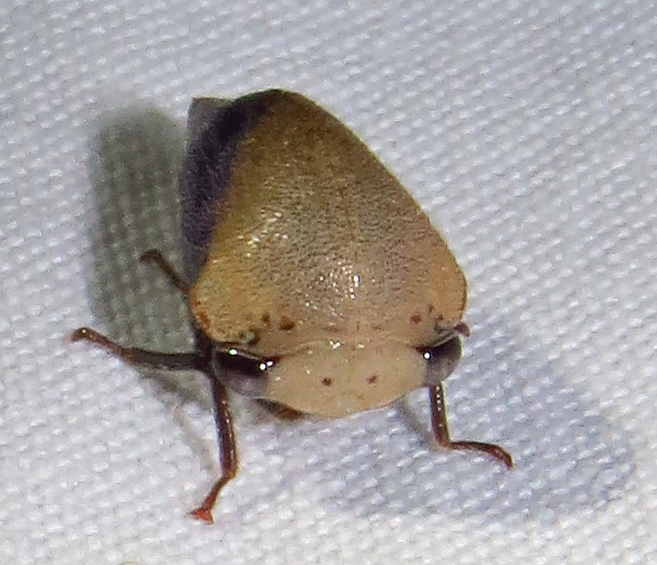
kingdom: Animalia
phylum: Arthropoda
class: Insecta
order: Hemiptera
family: Membracidae
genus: Carynota
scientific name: Carynota mera
